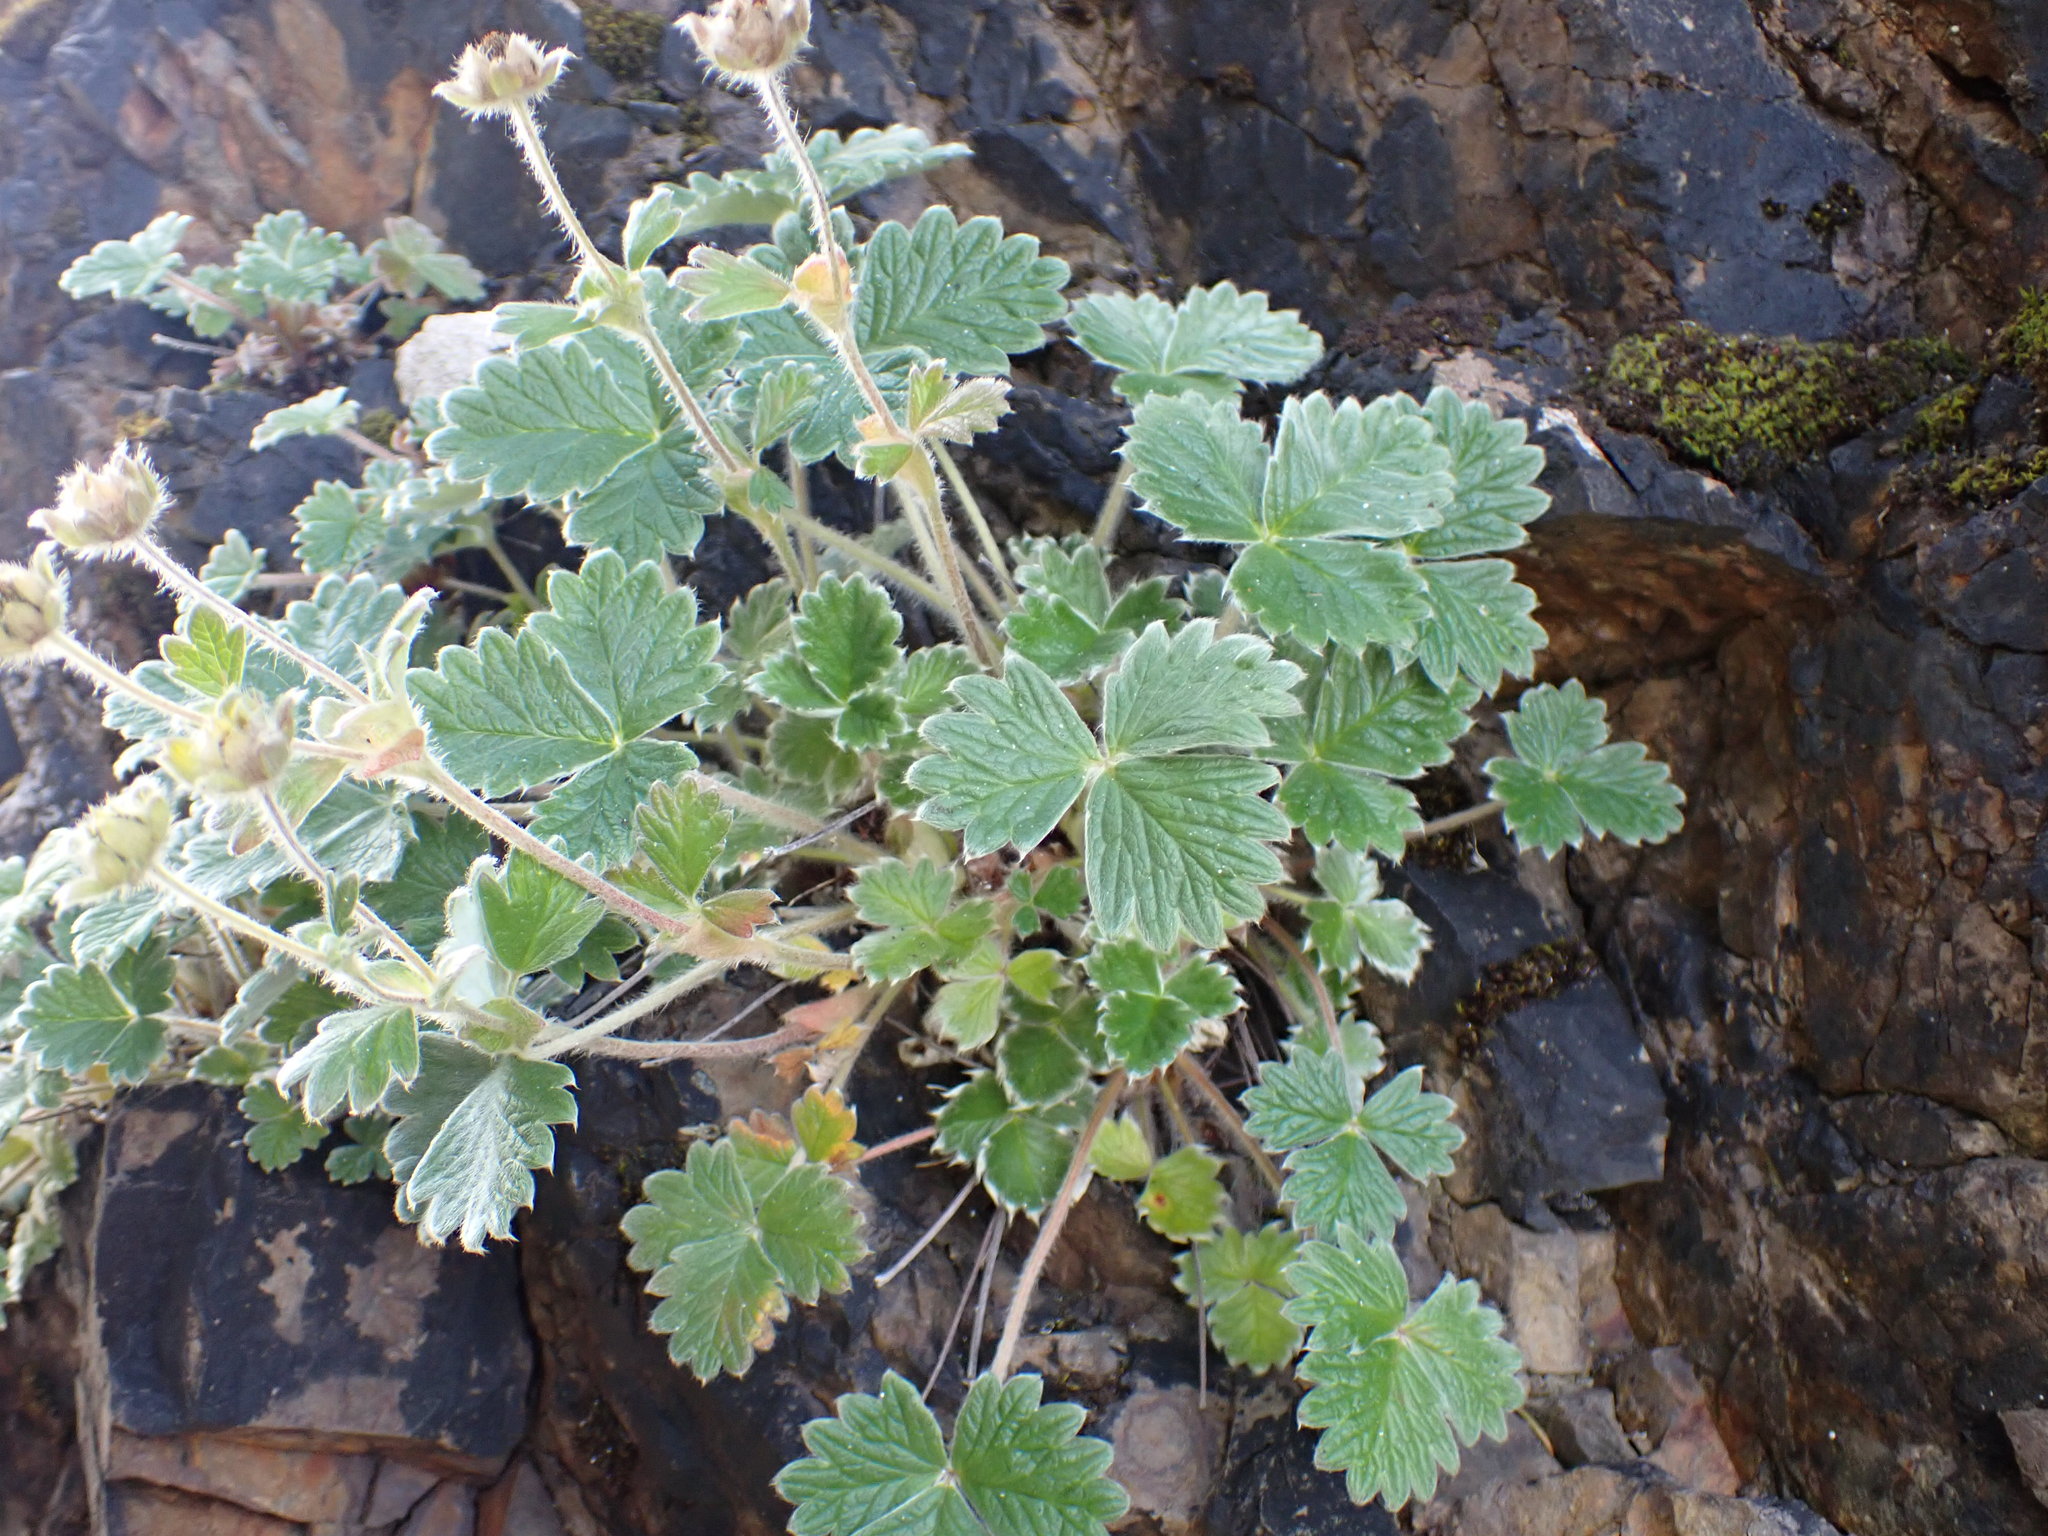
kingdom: Plantae
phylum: Tracheophyta
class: Magnoliopsida
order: Rosales
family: Rosaceae
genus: Potentilla
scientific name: Potentilla villosa
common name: Northern cinquefoil
